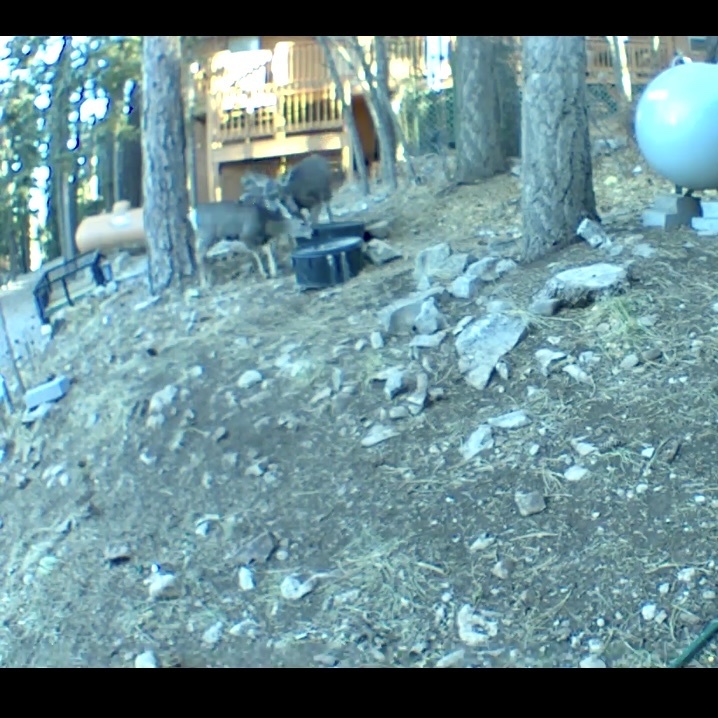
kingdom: Animalia
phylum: Chordata
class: Mammalia
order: Artiodactyla
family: Cervidae
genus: Odocoileus
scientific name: Odocoileus hemionus
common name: Mule deer
